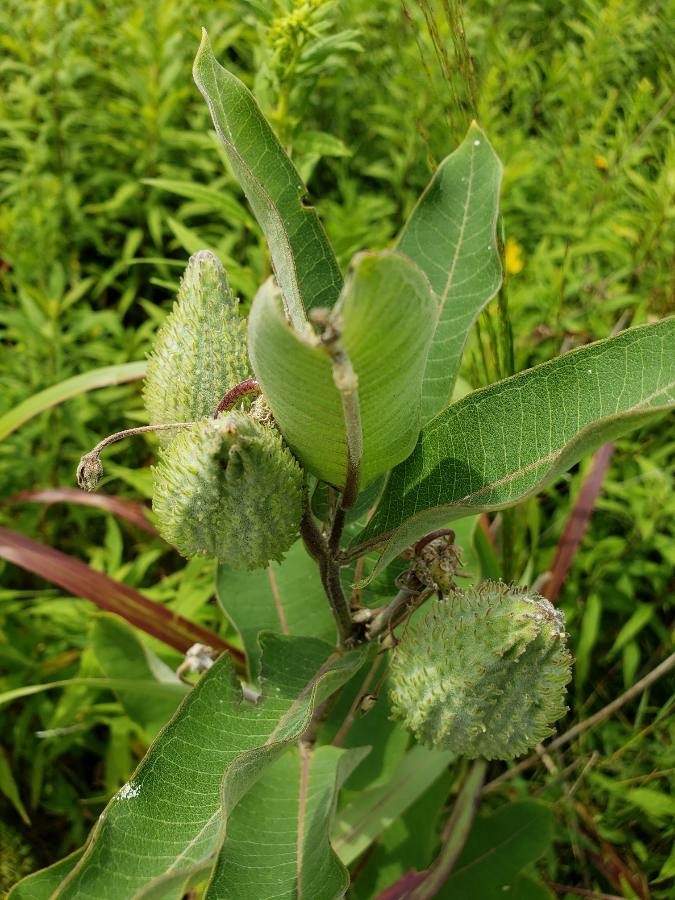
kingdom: Plantae
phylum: Tracheophyta
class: Magnoliopsida
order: Gentianales
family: Apocynaceae
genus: Asclepias
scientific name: Asclepias syriaca
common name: Common milkweed
